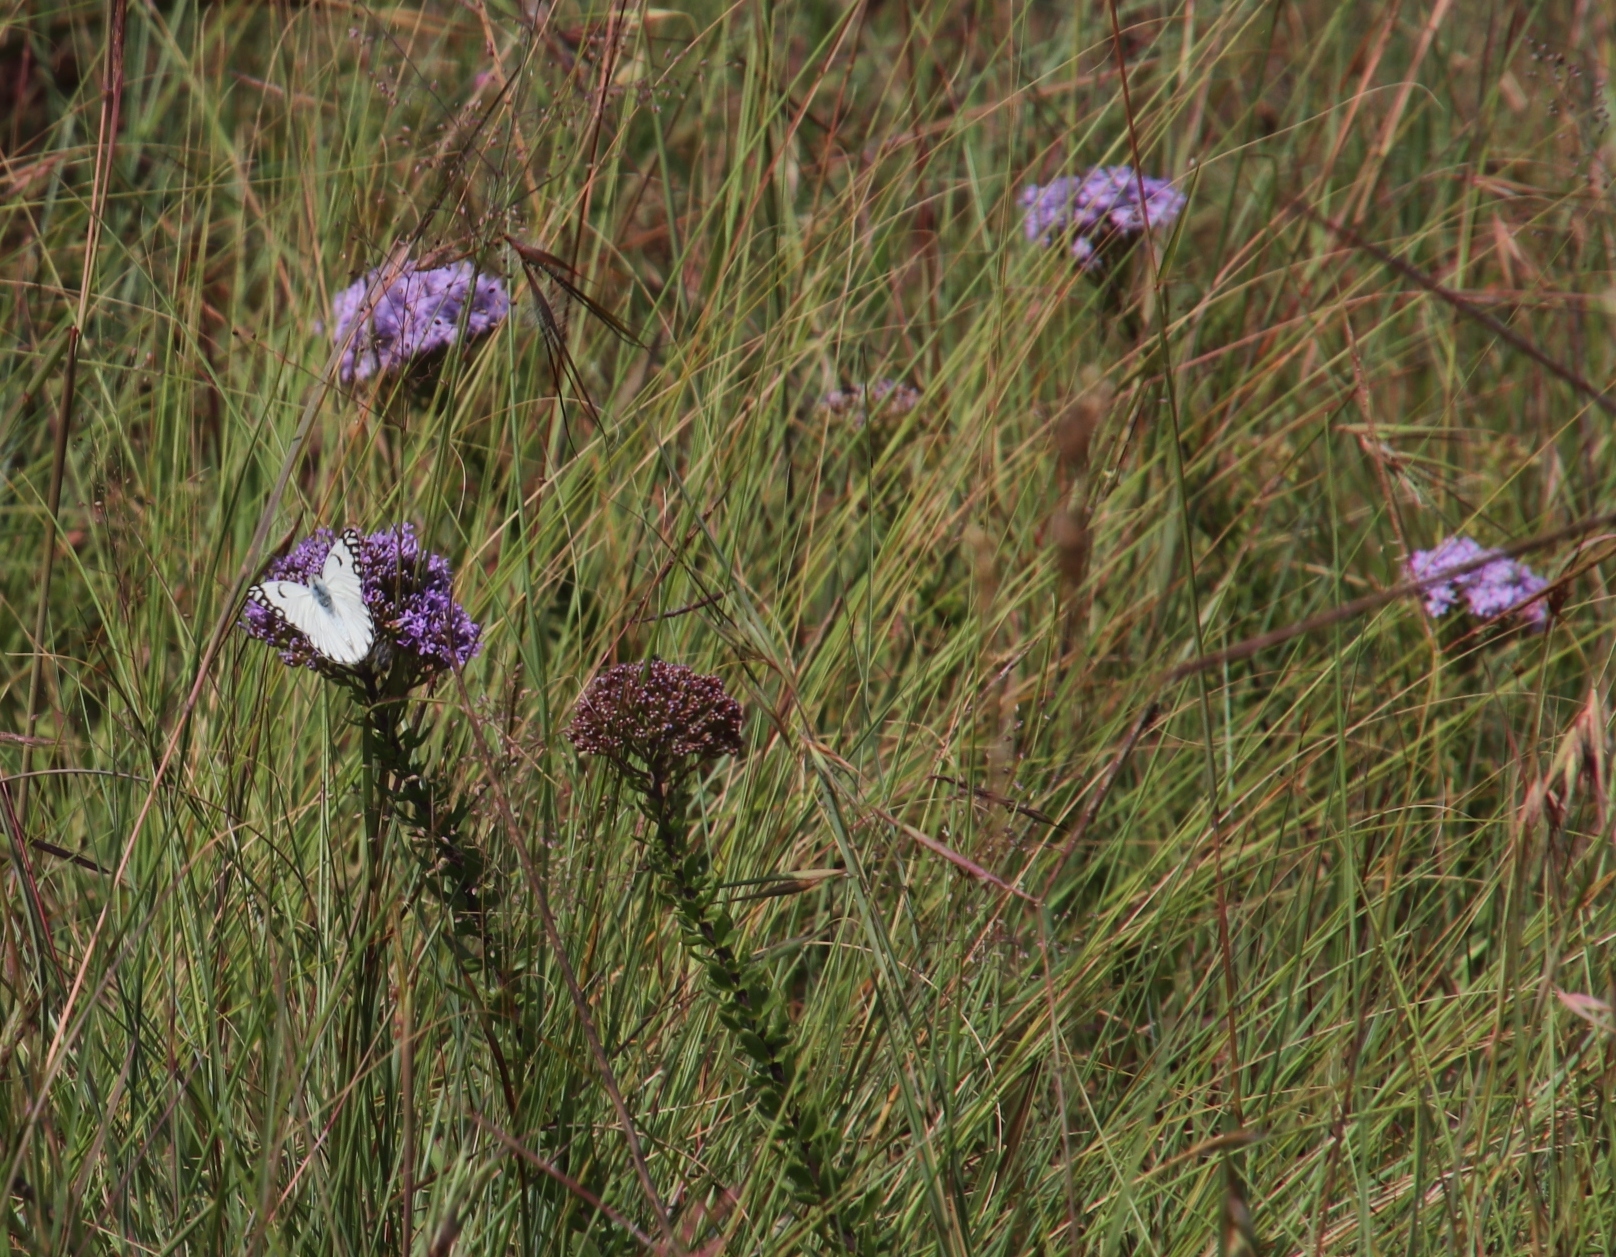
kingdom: Animalia
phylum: Arthropoda
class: Insecta
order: Lepidoptera
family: Pieridae
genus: Belenois
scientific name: Belenois aurota
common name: Brown-veined white
